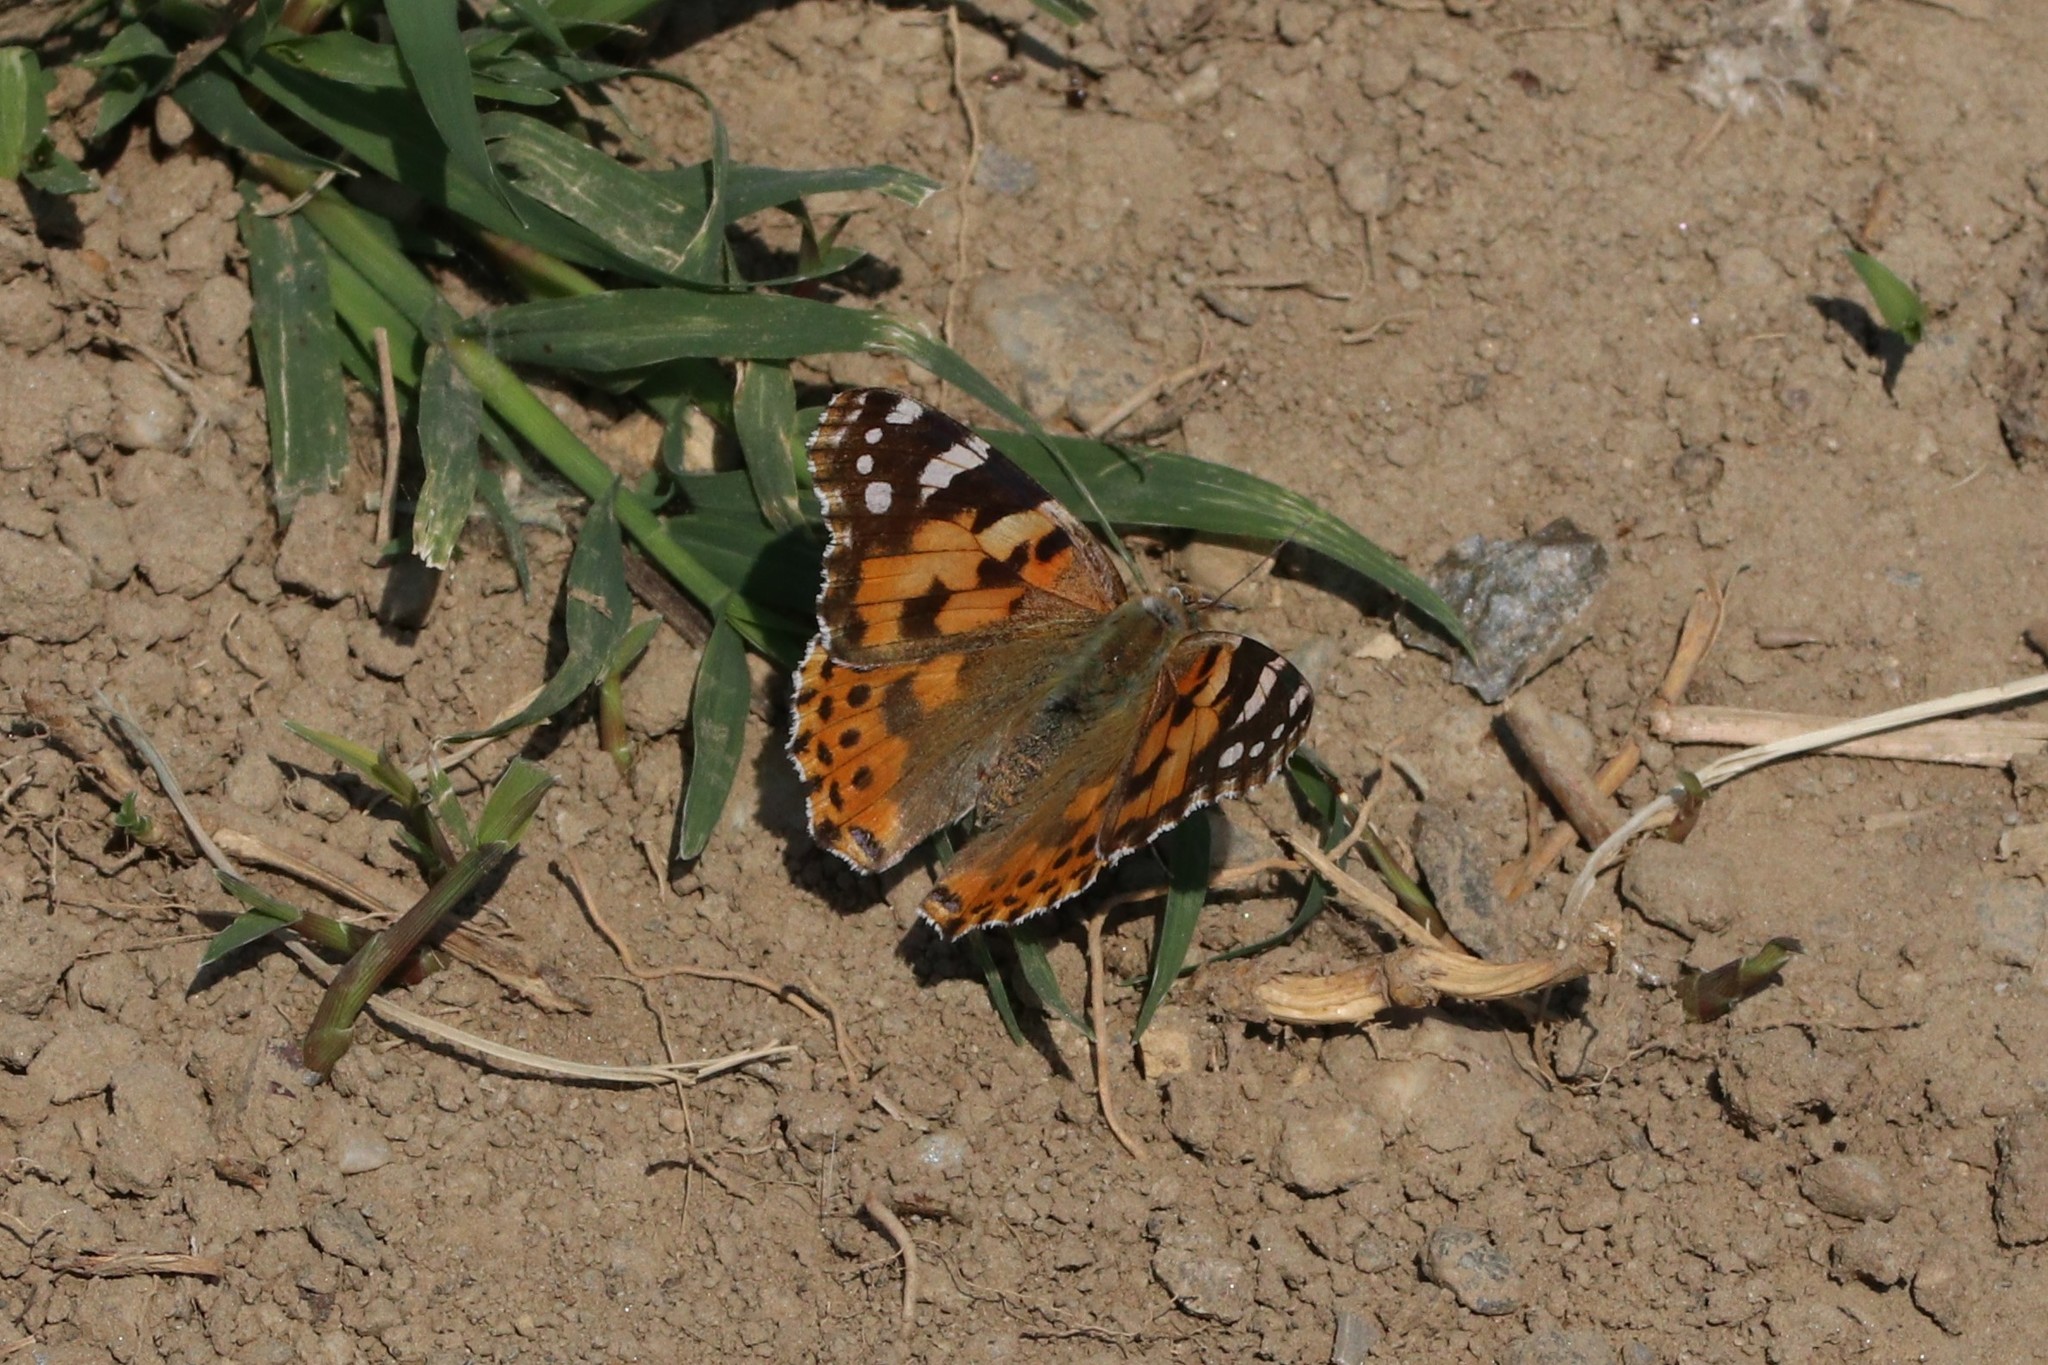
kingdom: Animalia
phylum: Arthropoda
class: Insecta
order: Lepidoptera
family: Nymphalidae
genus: Vanessa
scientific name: Vanessa cardui
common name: Painted lady
